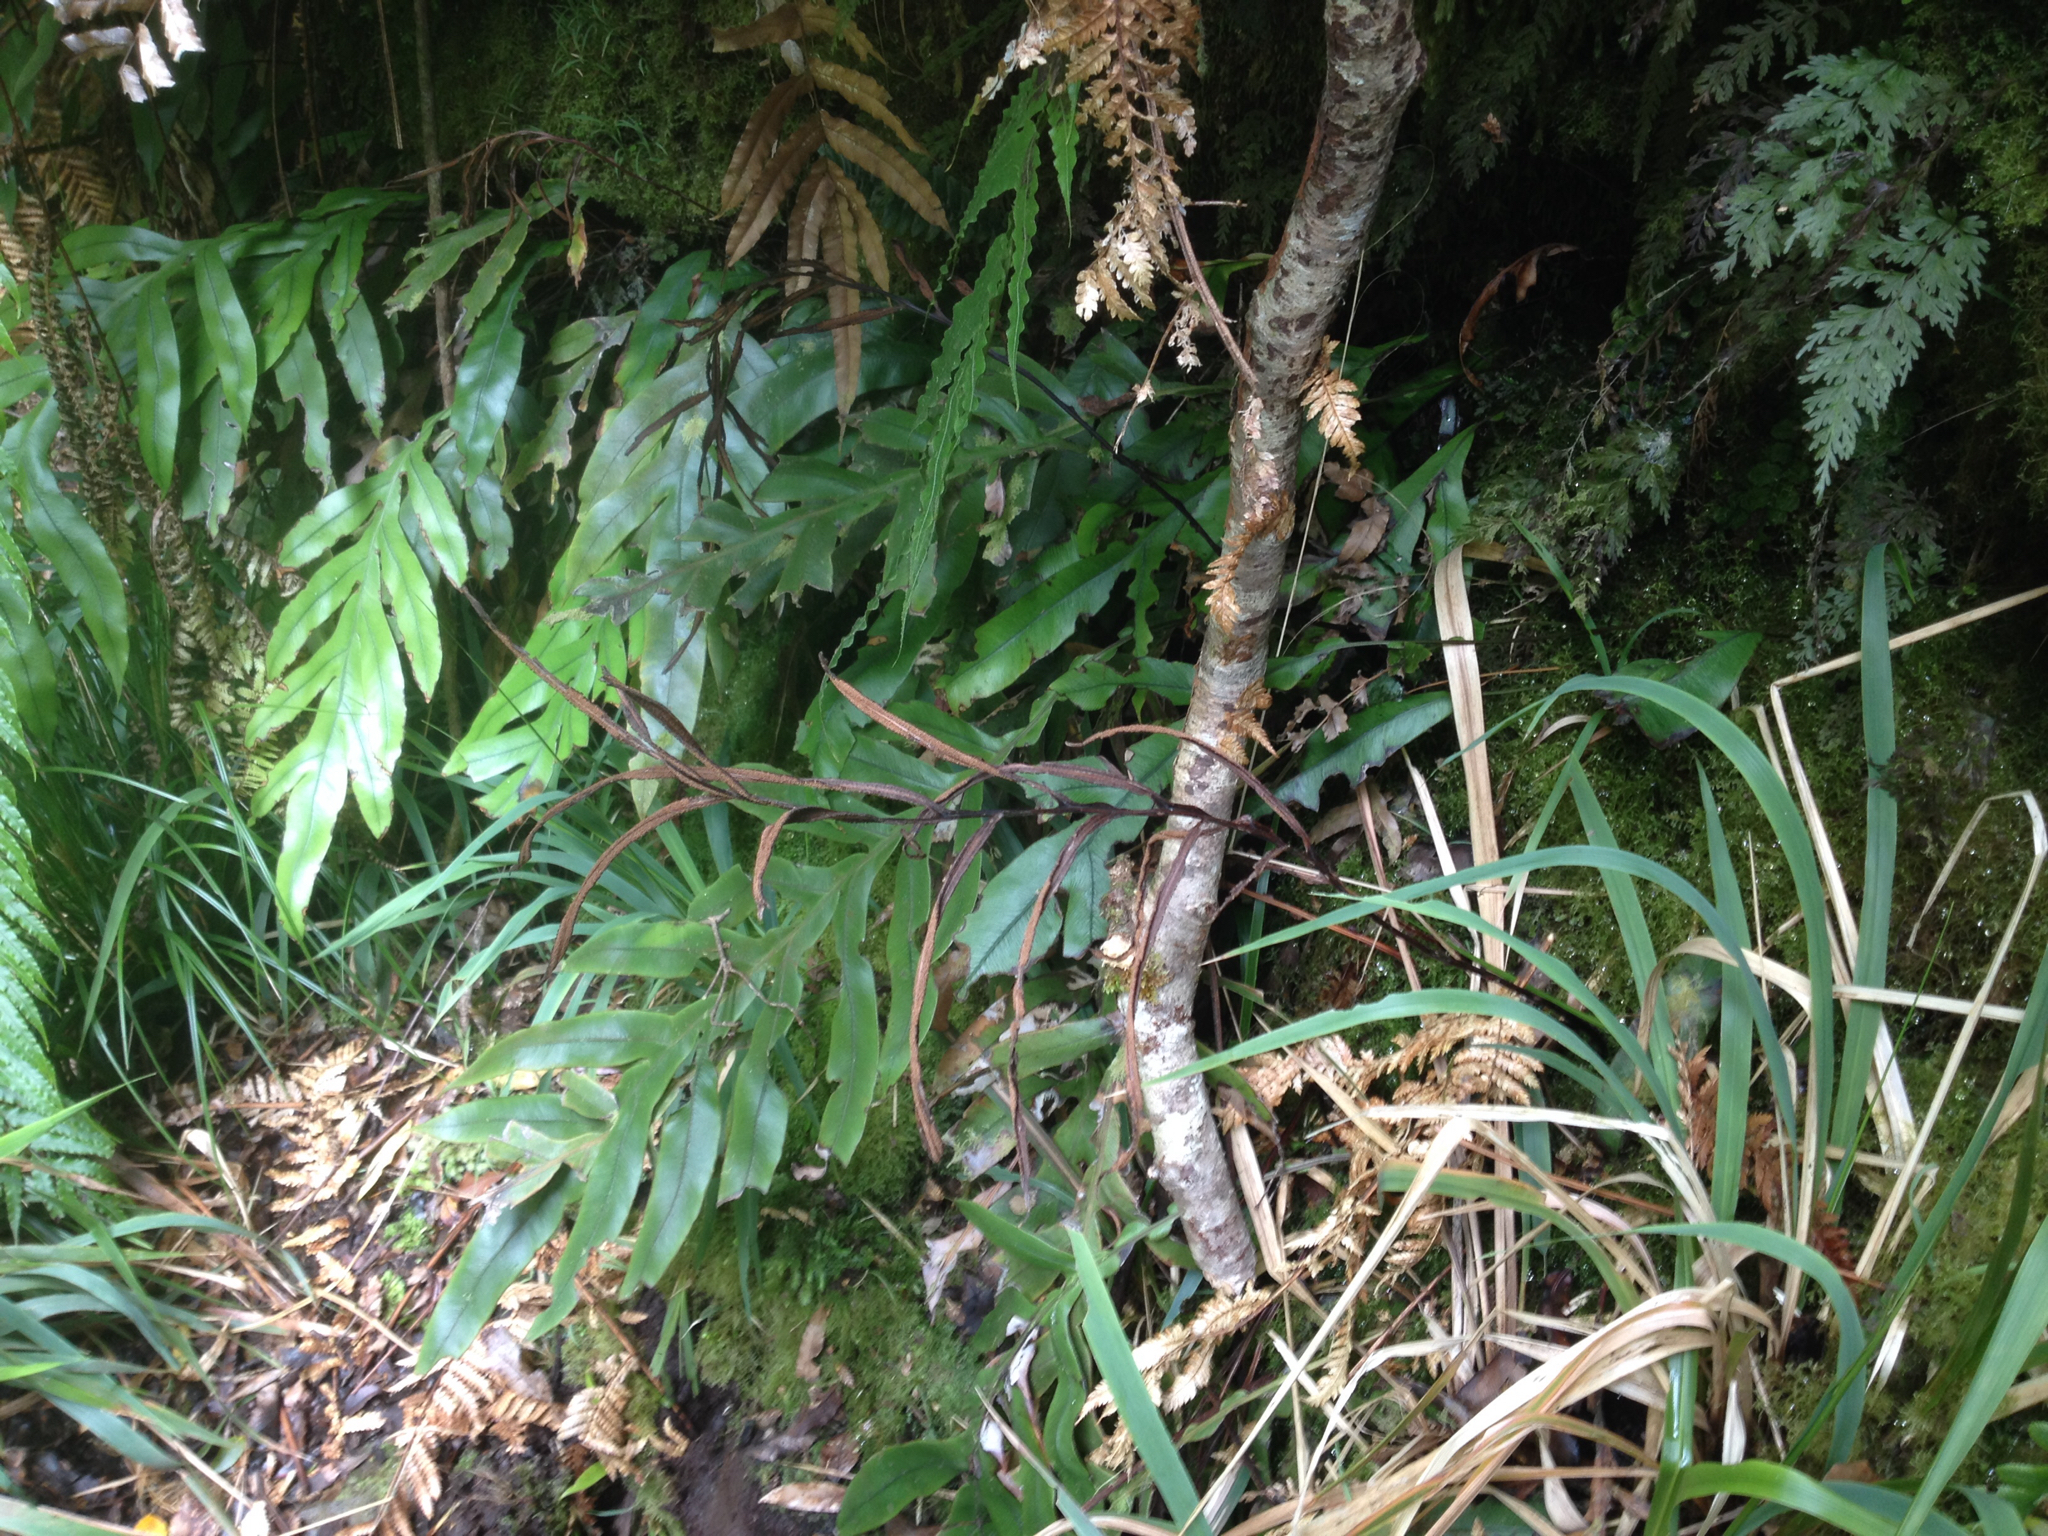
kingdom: Plantae
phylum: Tracheophyta
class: Polypodiopsida
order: Polypodiales
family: Blechnaceae
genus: Austroblechnum
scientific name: Austroblechnum colensoi
